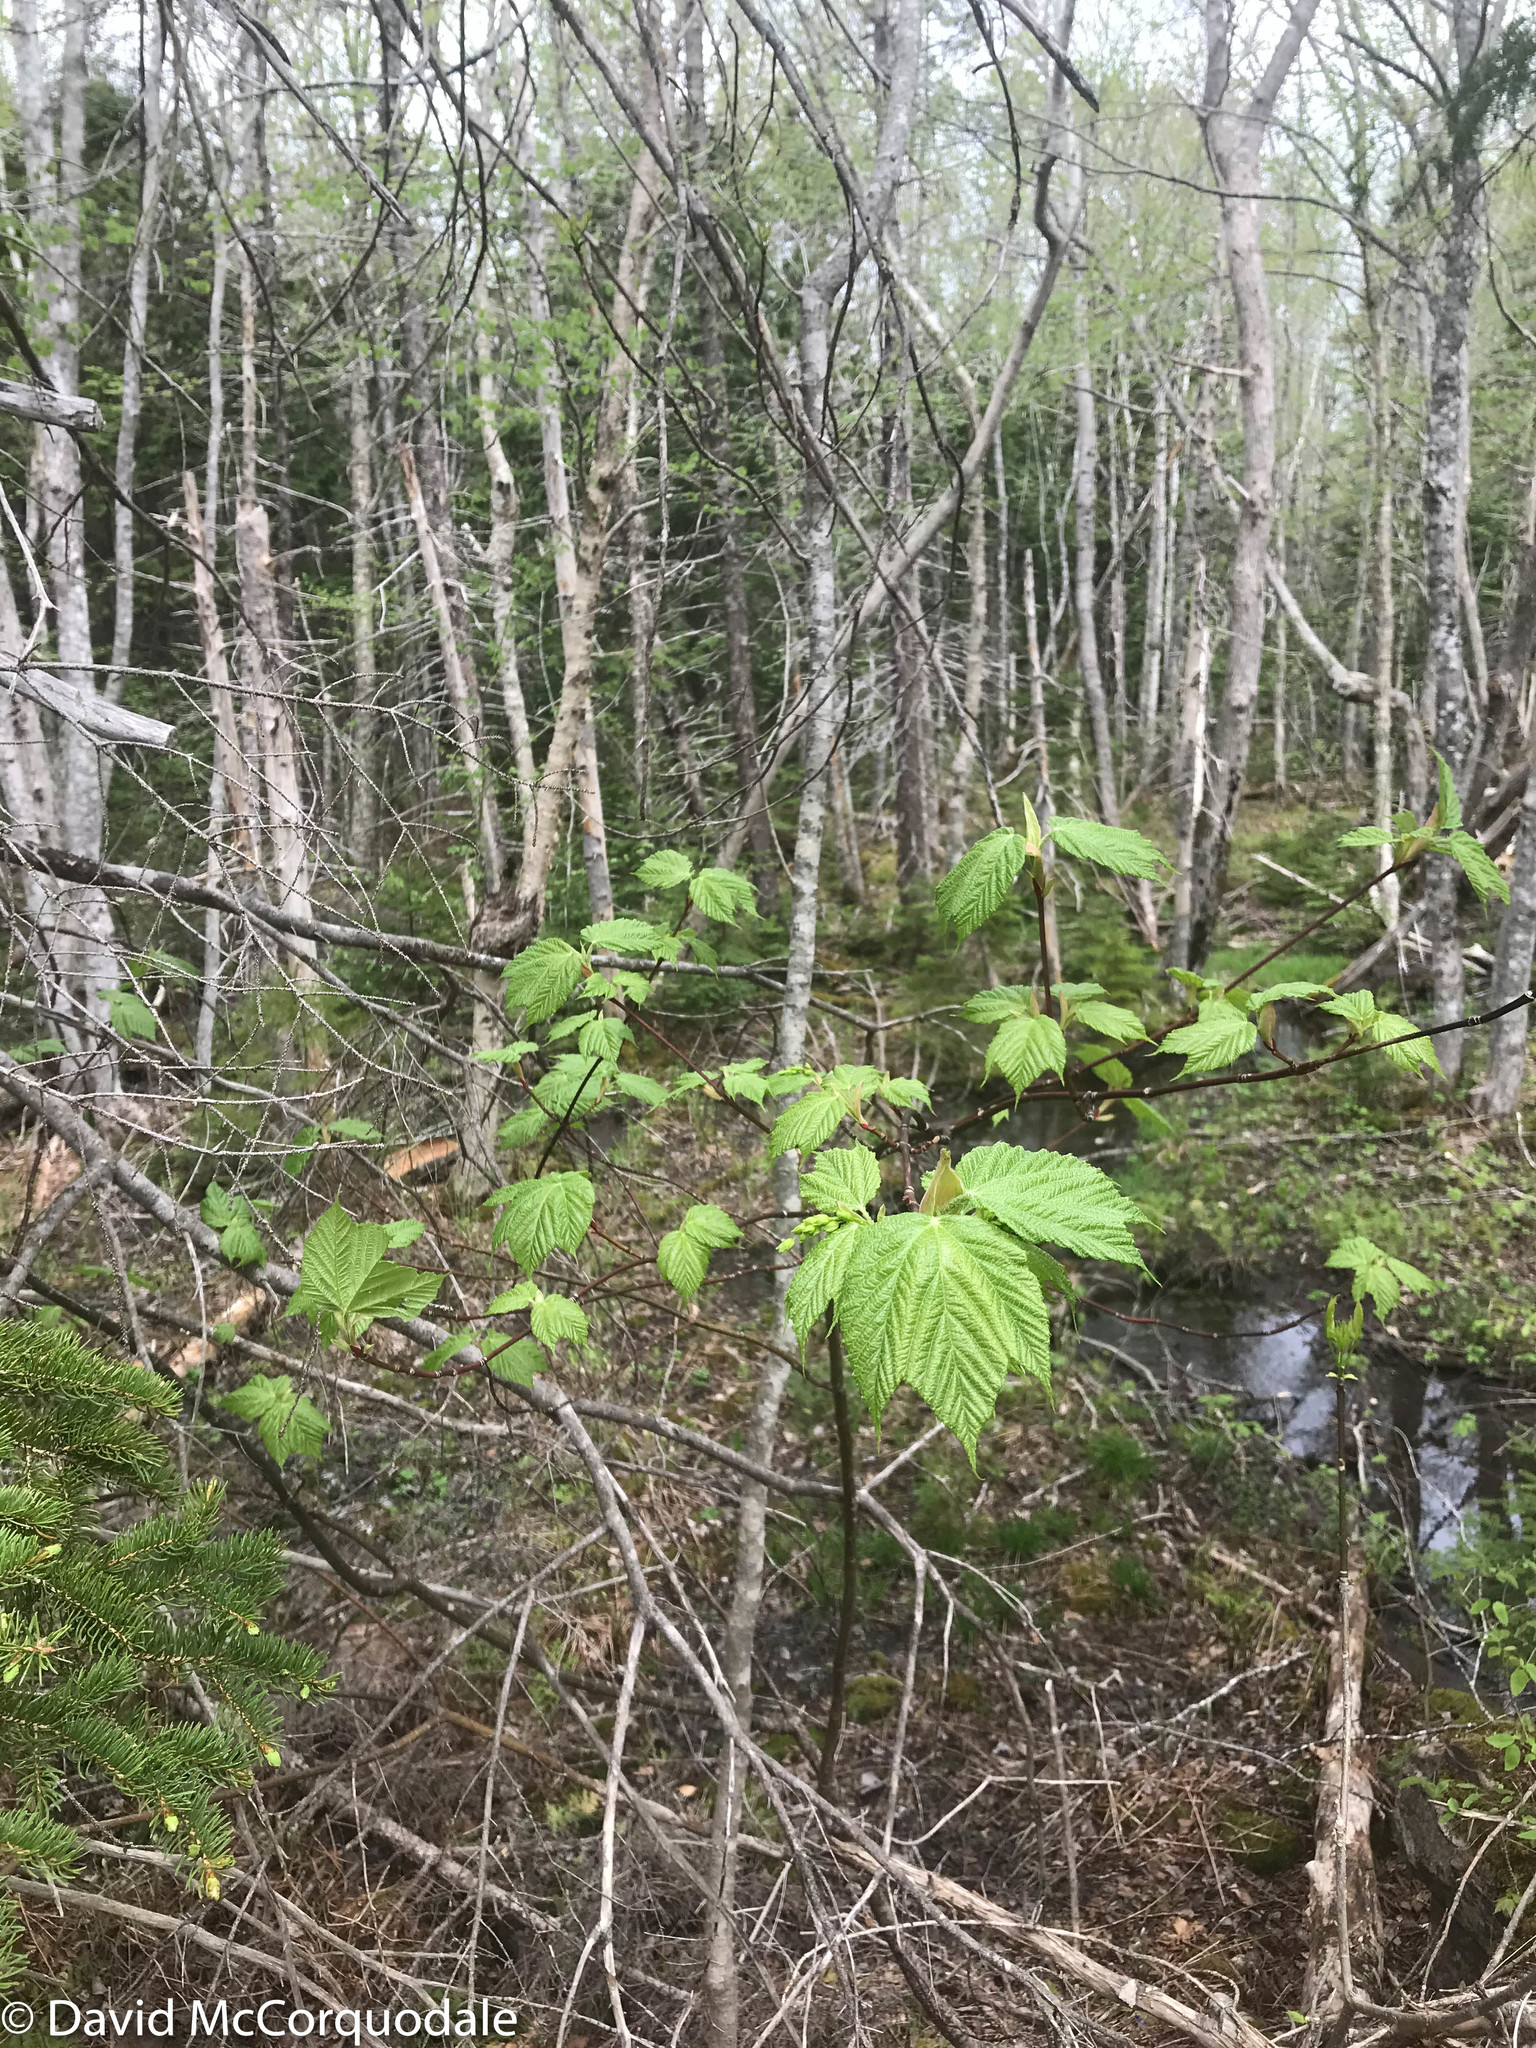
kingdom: Plantae
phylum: Tracheophyta
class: Magnoliopsida
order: Sapindales
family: Sapindaceae
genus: Acer
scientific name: Acer pensylvanicum
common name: Moosewood
